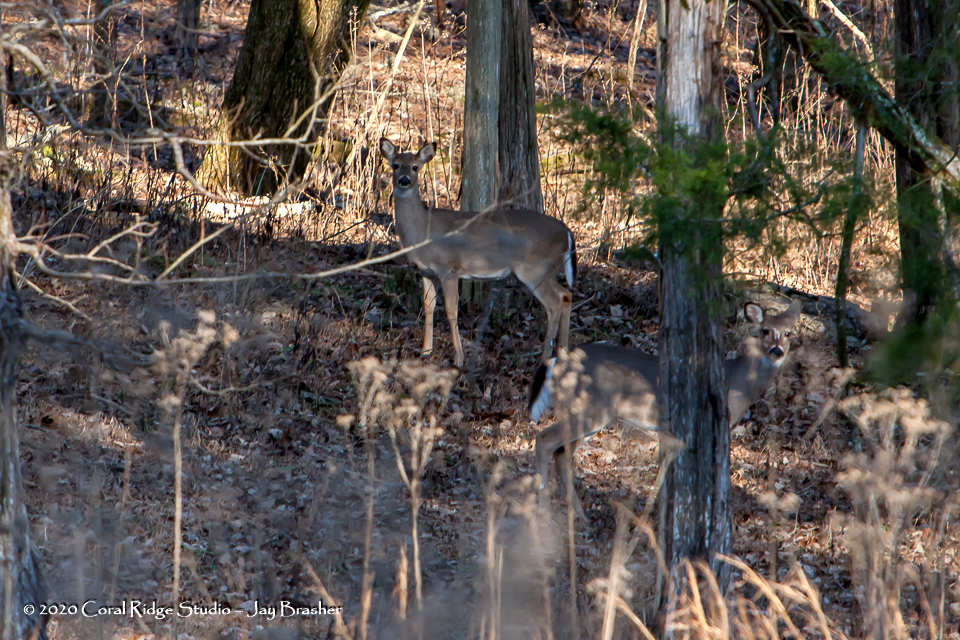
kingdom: Animalia
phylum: Chordata
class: Mammalia
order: Artiodactyla
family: Cervidae
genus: Odocoileus
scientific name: Odocoileus virginianus
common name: White-tailed deer
